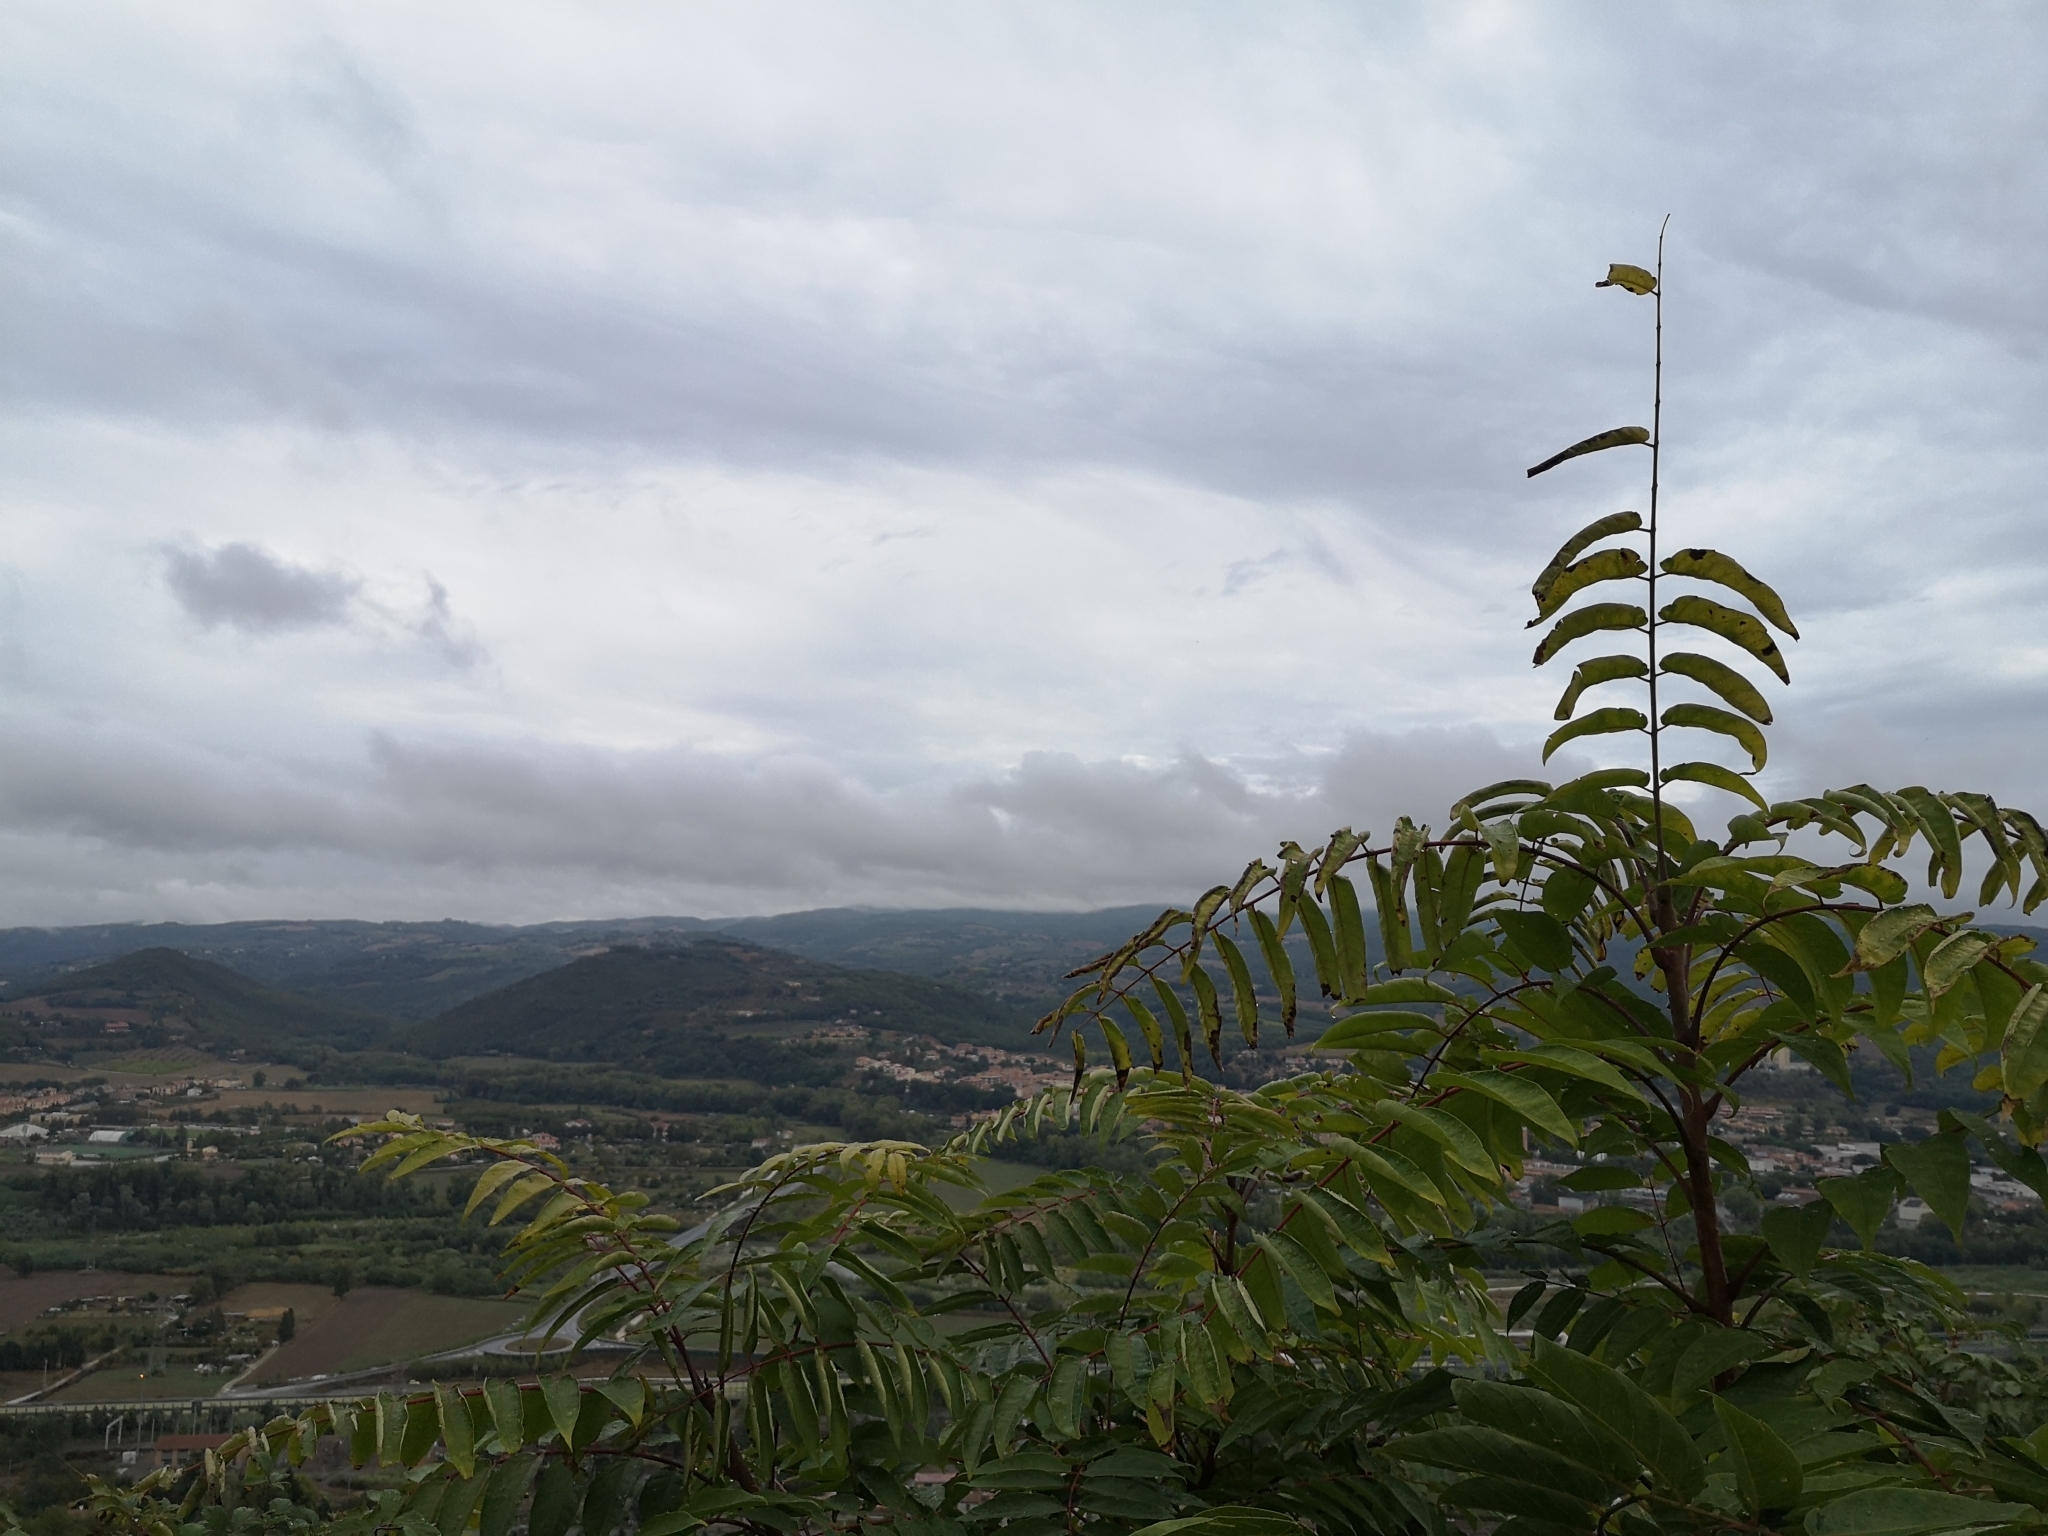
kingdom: Plantae
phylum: Tracheophyta
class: Magnoliopsida
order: Sapindales
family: Simaroubaceae
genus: Ailanthus
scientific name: Ailanthus altissima
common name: Tree-of-heaven
